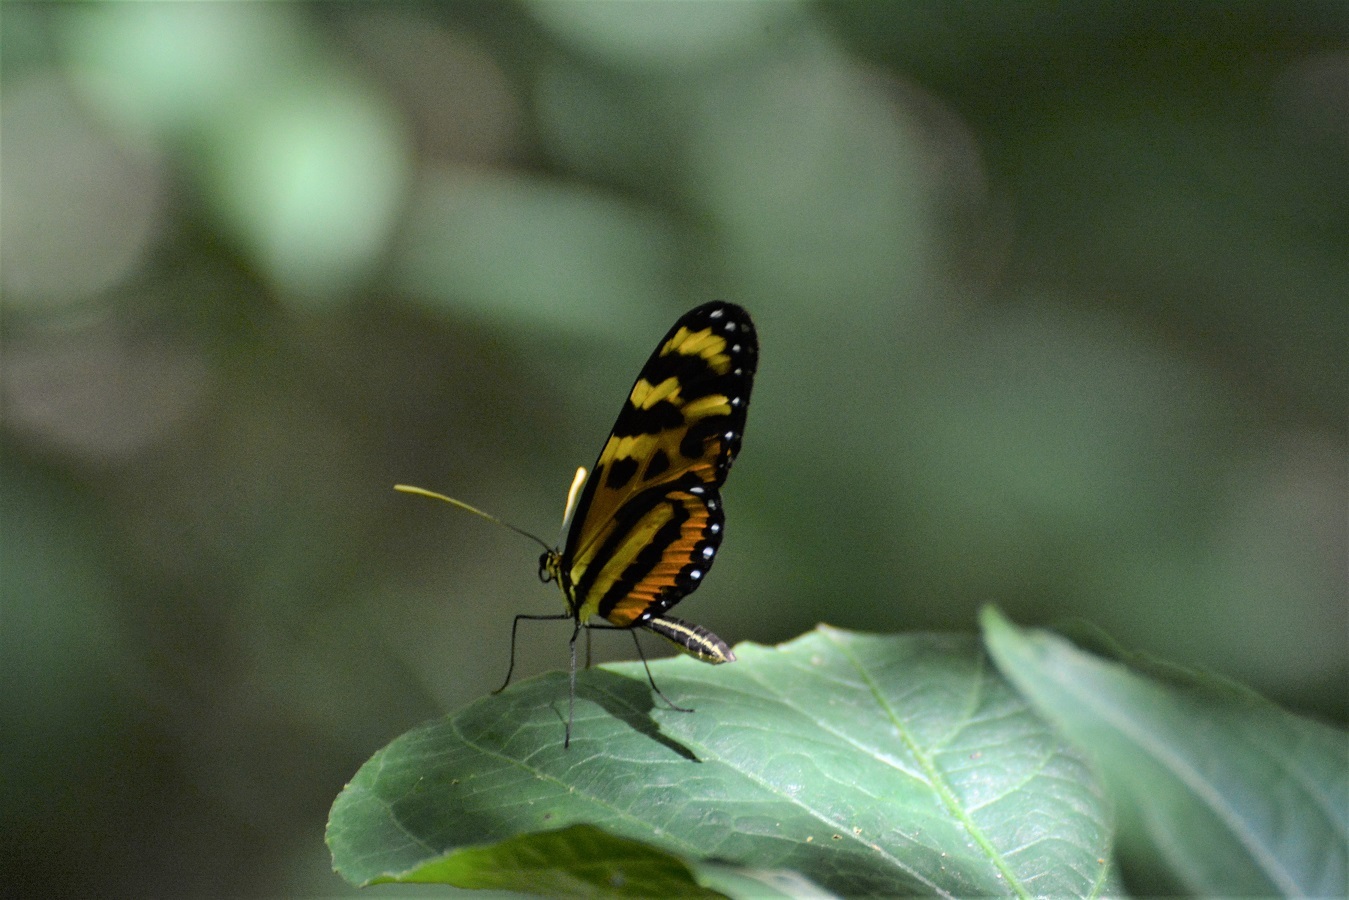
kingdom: Animalia
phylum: Arthropoda
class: Insecta
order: Lepidoptera
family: Nymphalidae
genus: Mechanitis
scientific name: Mechanitis lysimnia
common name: Lysimnia tigerwing
